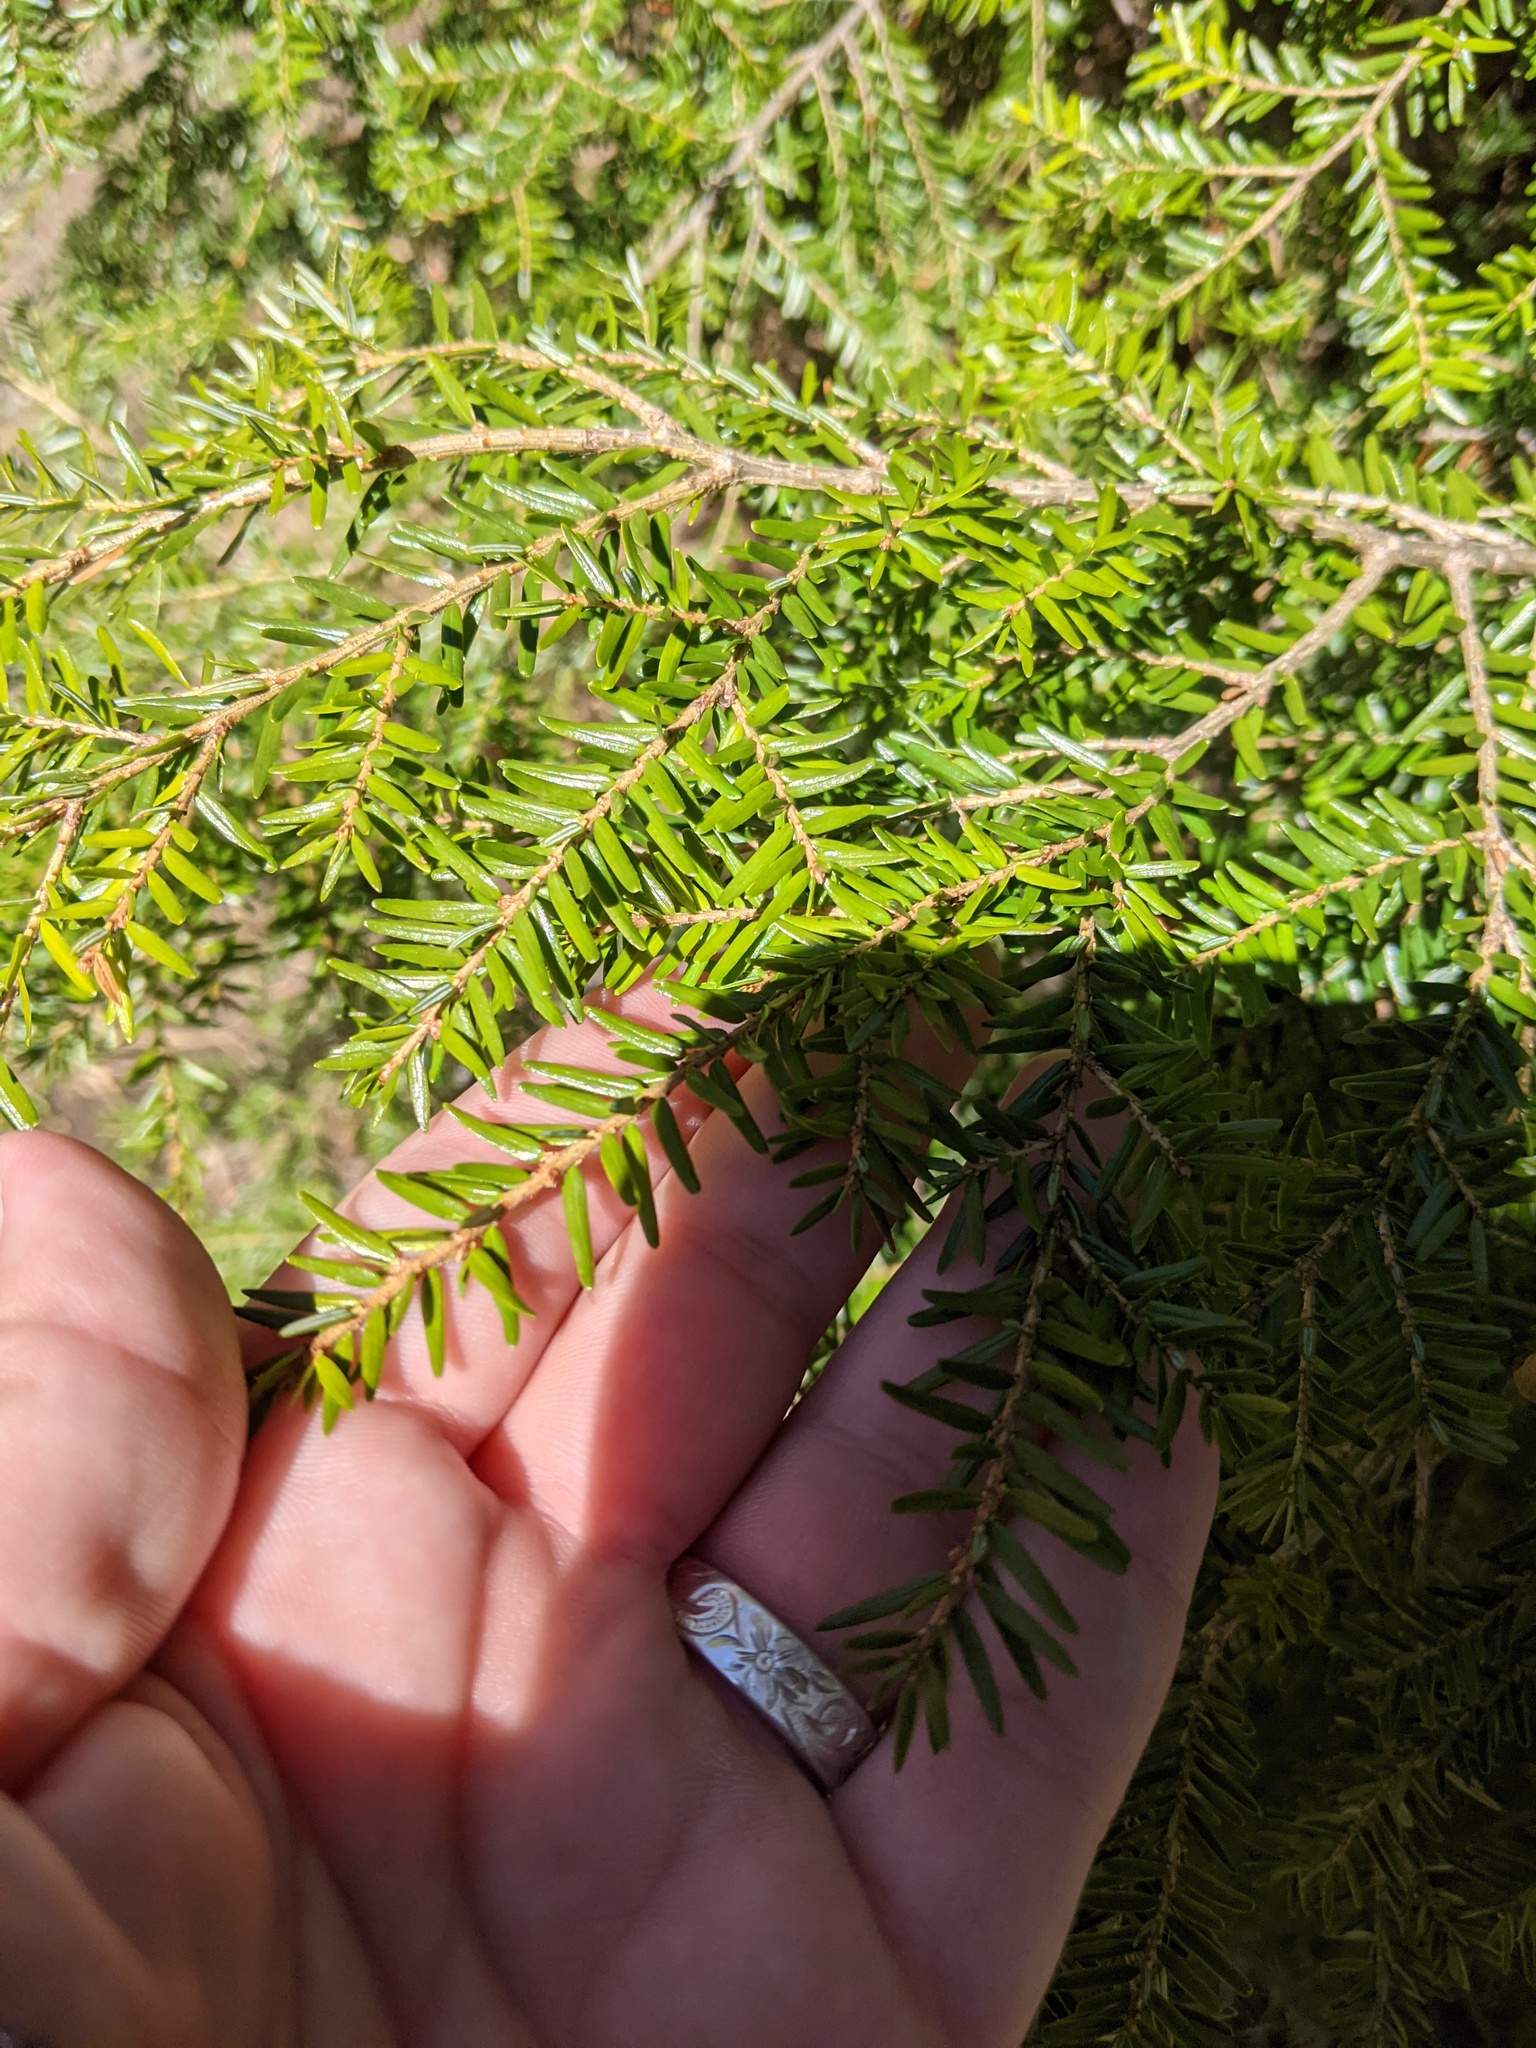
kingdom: Plantae
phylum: Tracheophyta
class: Pinopsida
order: Pinales
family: Pinaceae
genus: Tsuga
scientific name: Tsuga canadensis
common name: Eastern hemlock
